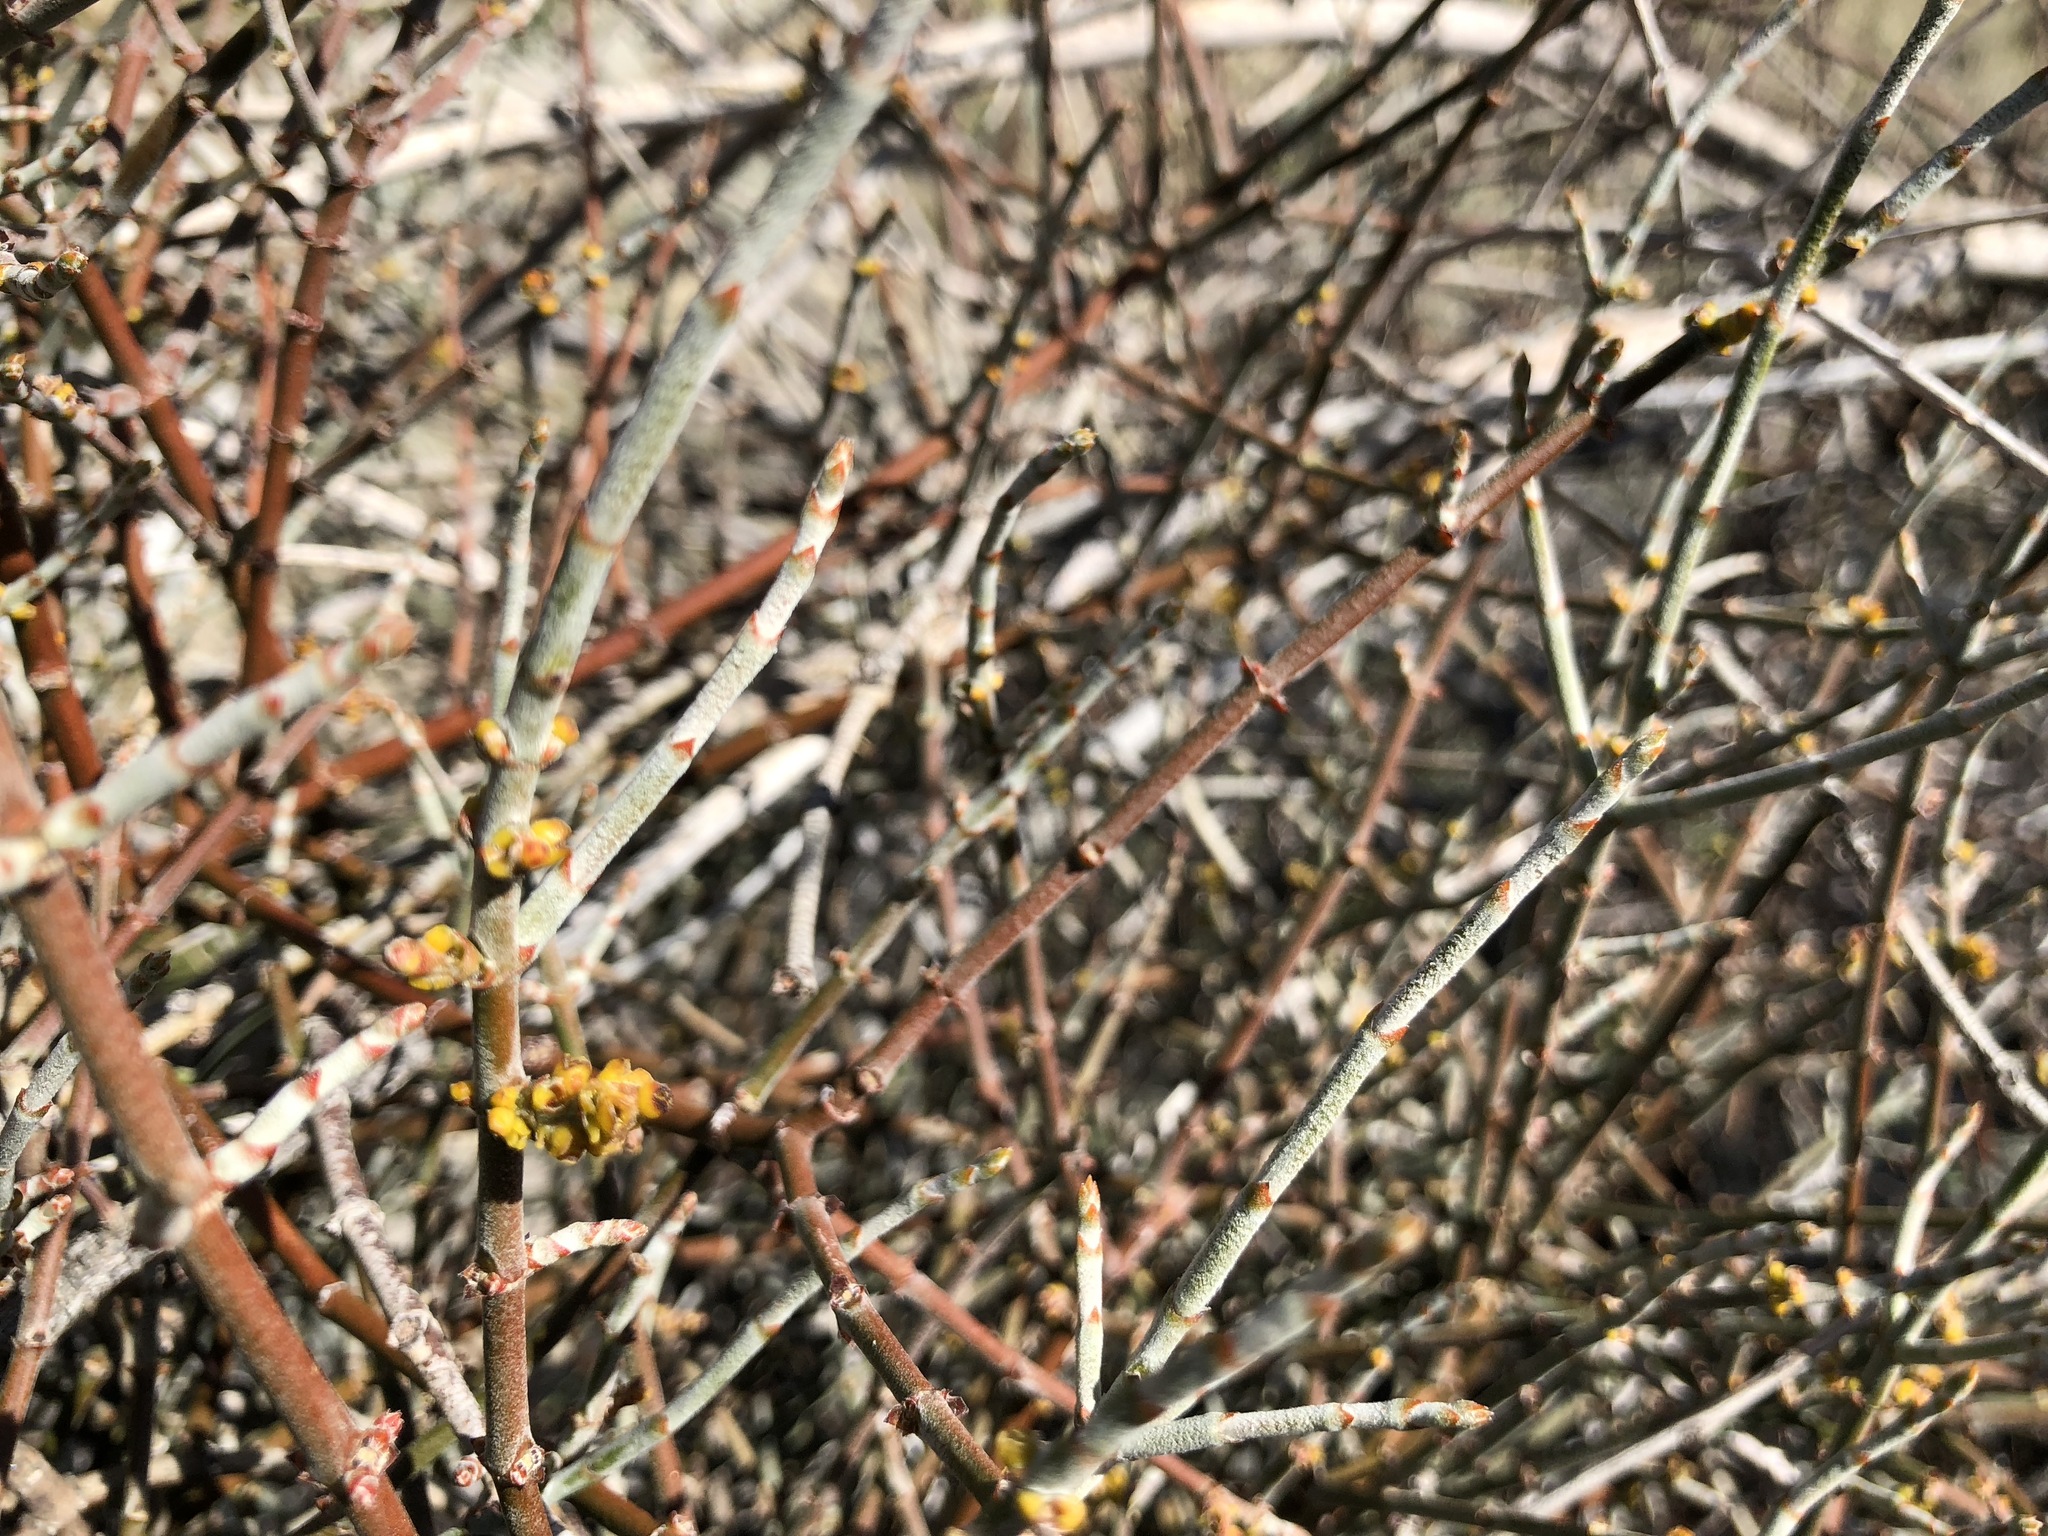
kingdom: Plantae
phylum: Tracheophyta
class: Magnoliopsida
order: Santalales
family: Viscaceae
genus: Phoradendron
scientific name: Phoradendron californicum
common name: Acacia mistletoe
